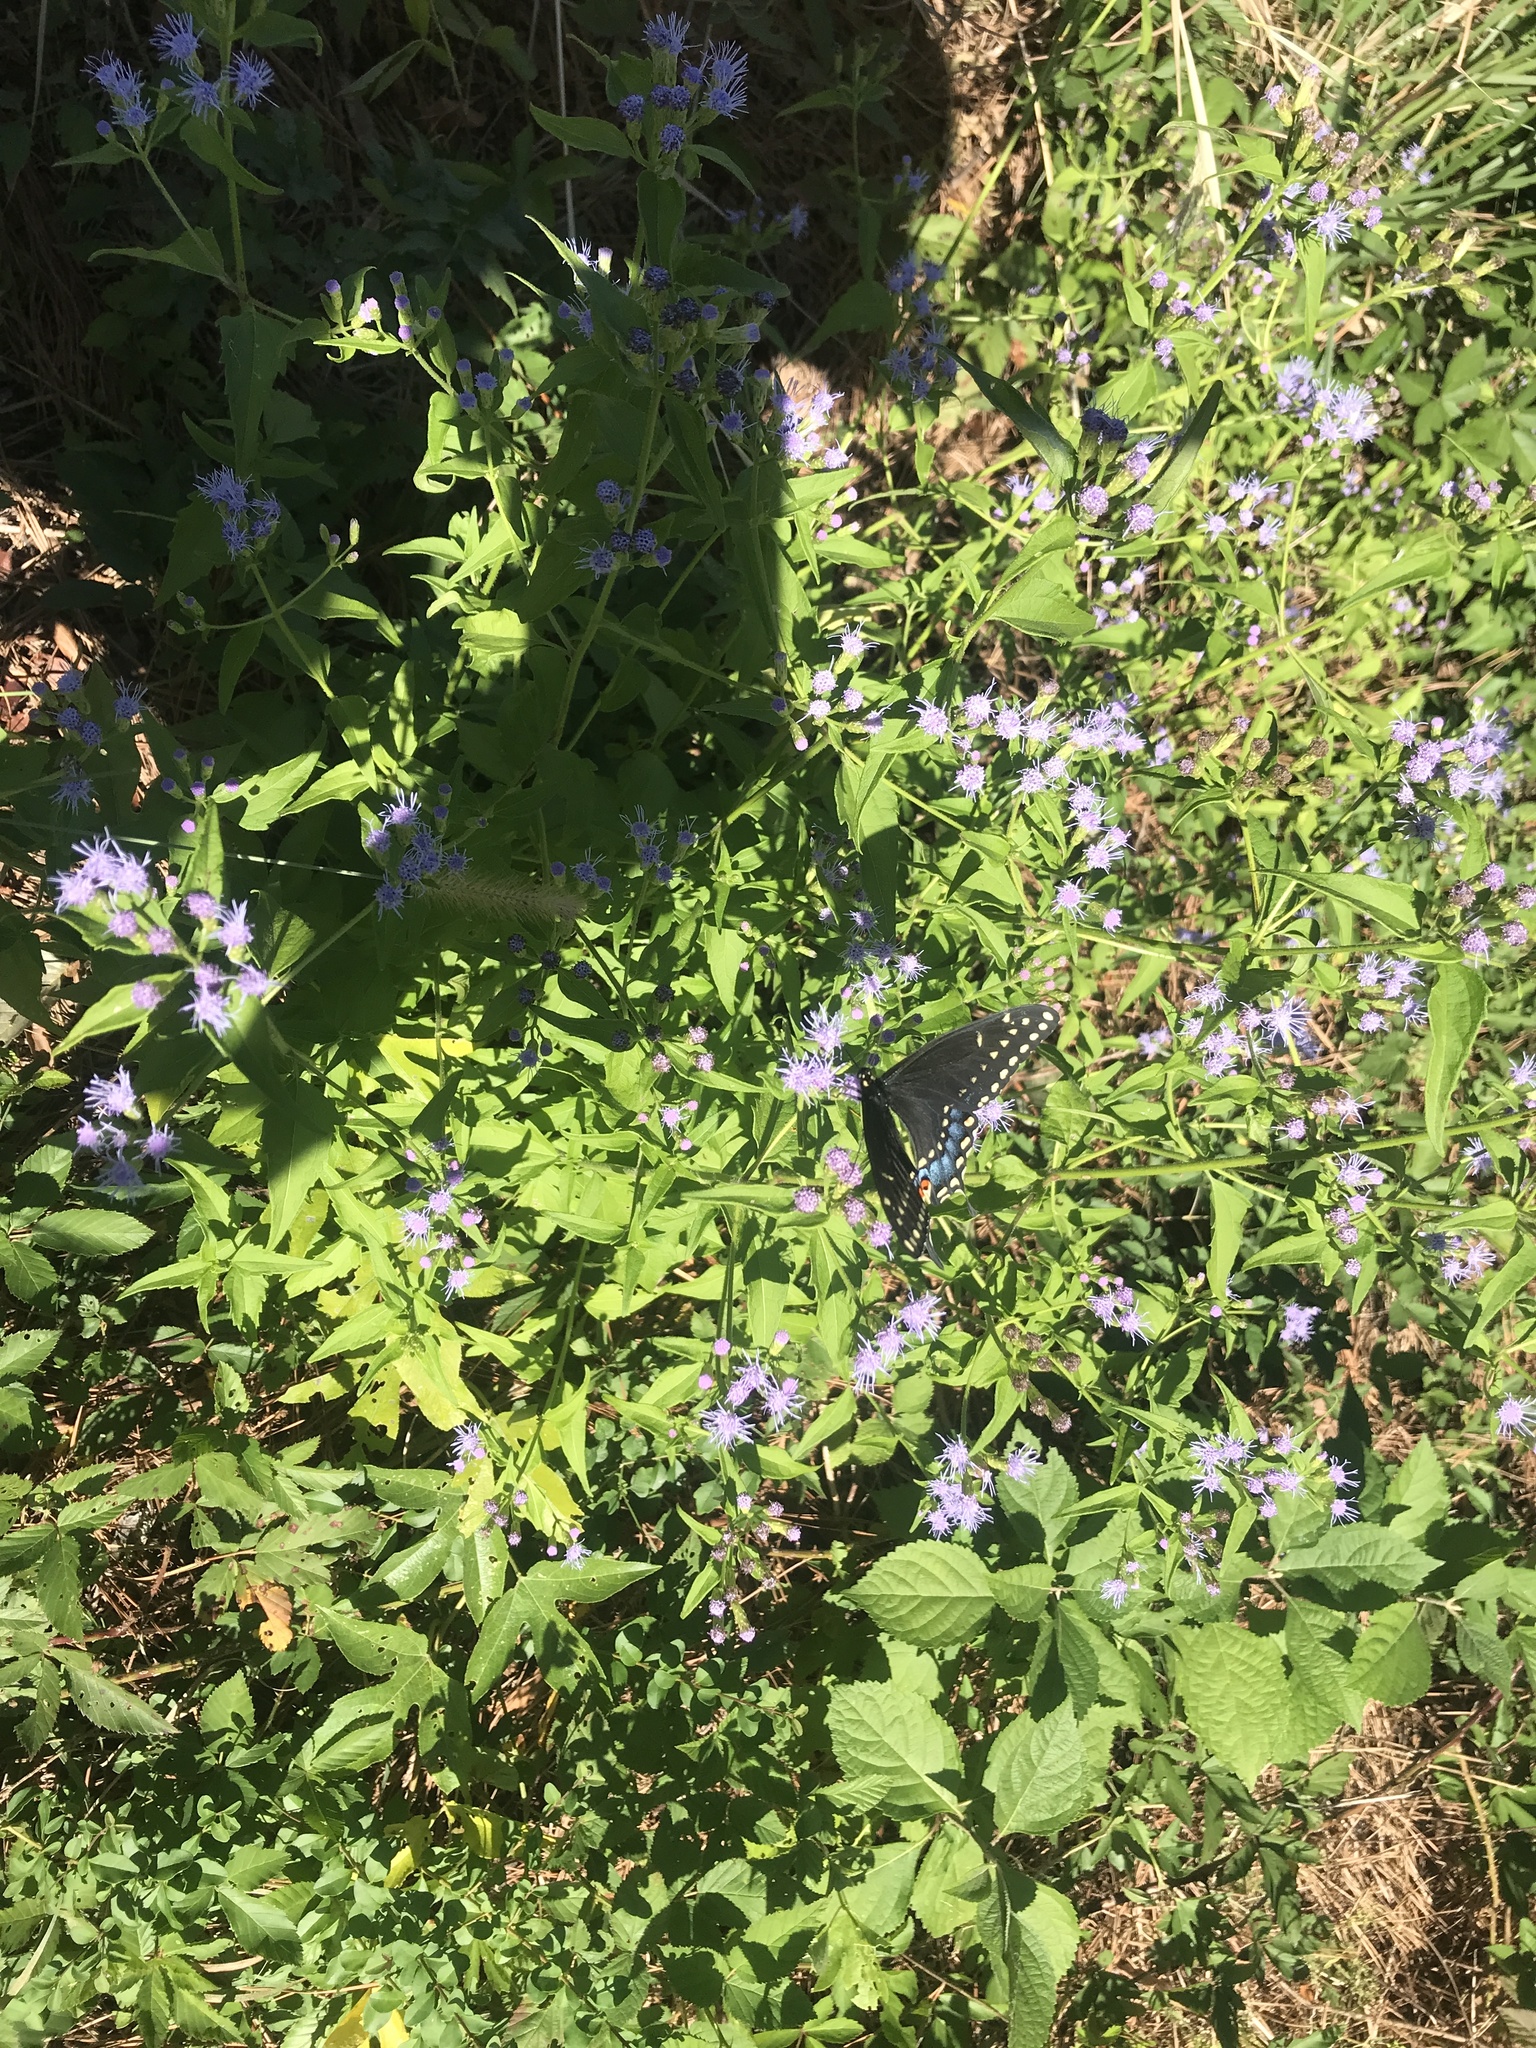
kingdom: Animalia
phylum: Arthropoda
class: Insecta
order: Lepidoptera
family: Papilionidae
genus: Papilio
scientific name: Papilio polyxenes
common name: Black swallowtail
